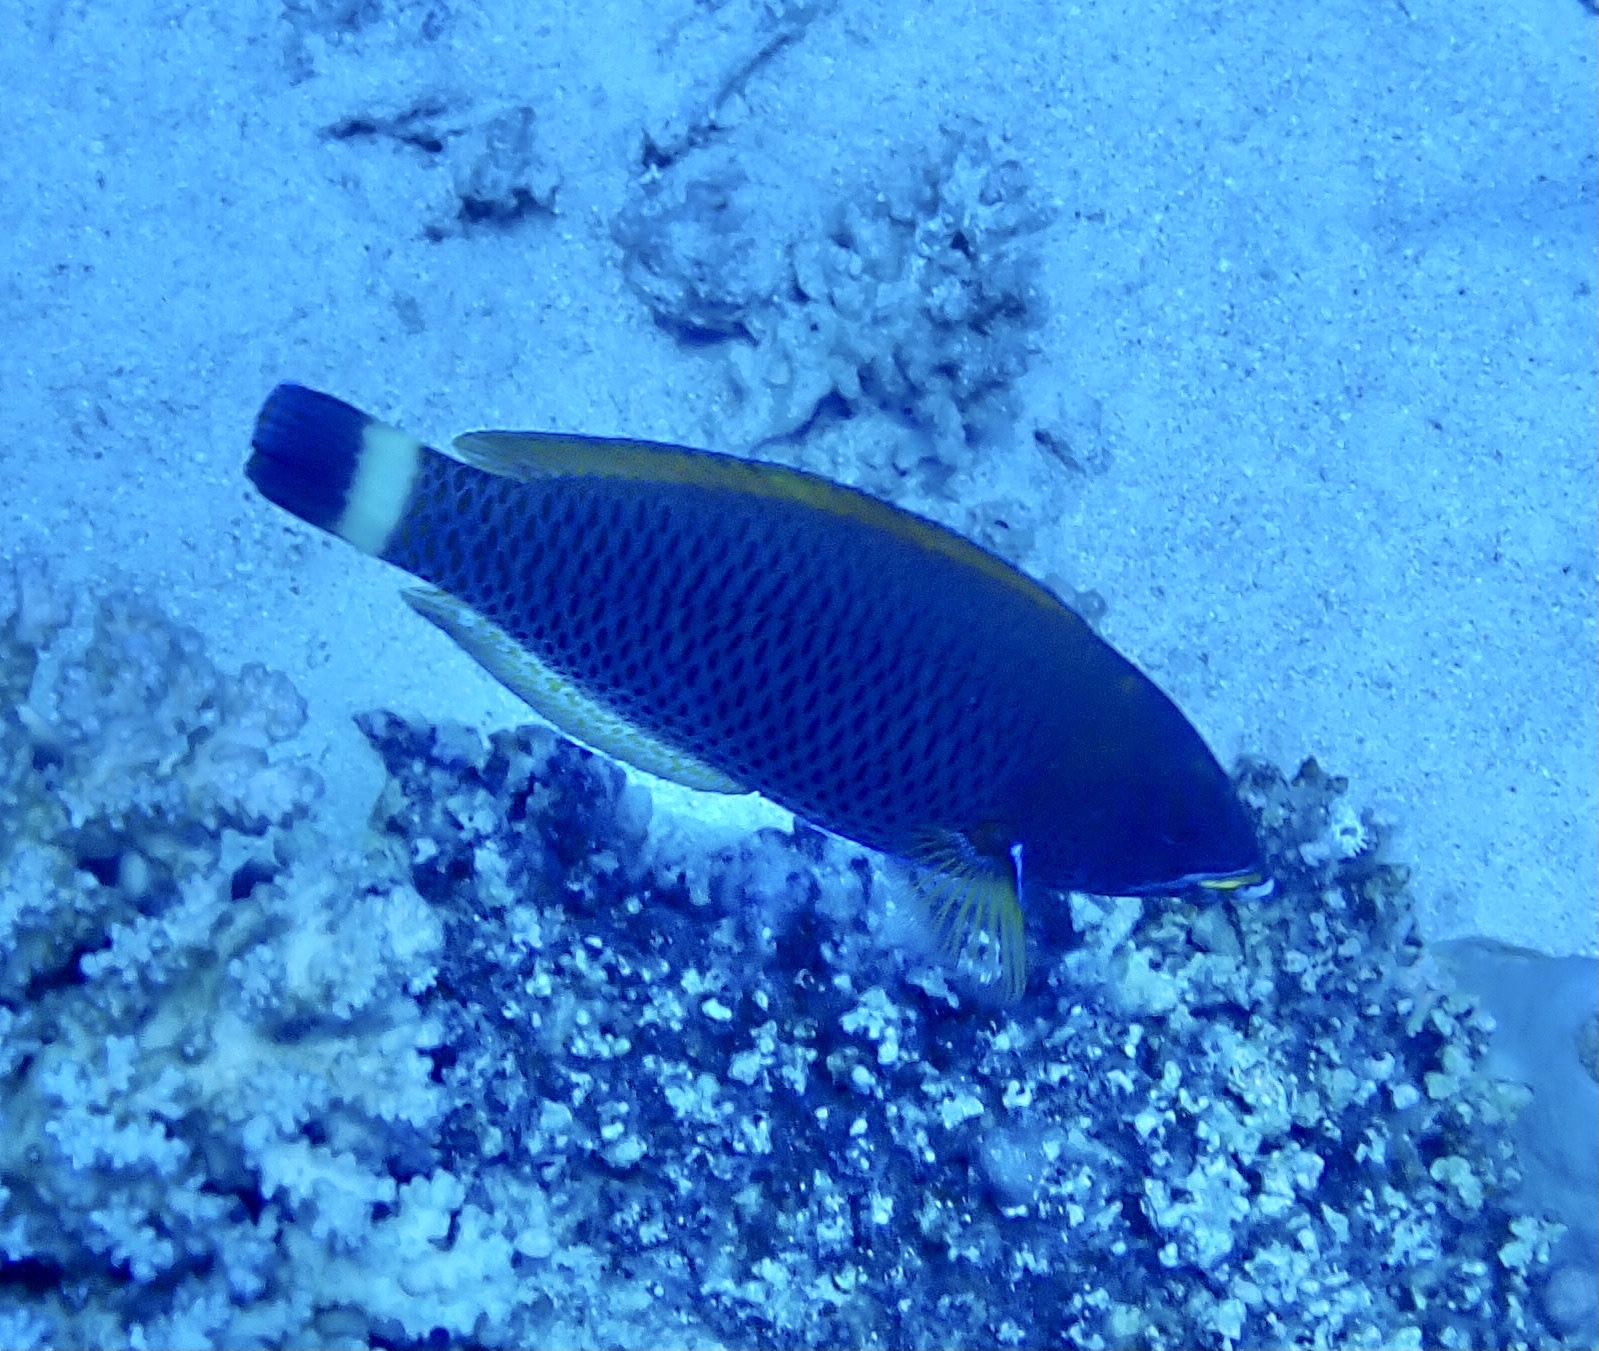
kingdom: Animalia
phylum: Chordata
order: Perciformes
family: Labridae
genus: Pseudodax
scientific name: Pseudodax moluccanus
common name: Chiseltooth wrasse
